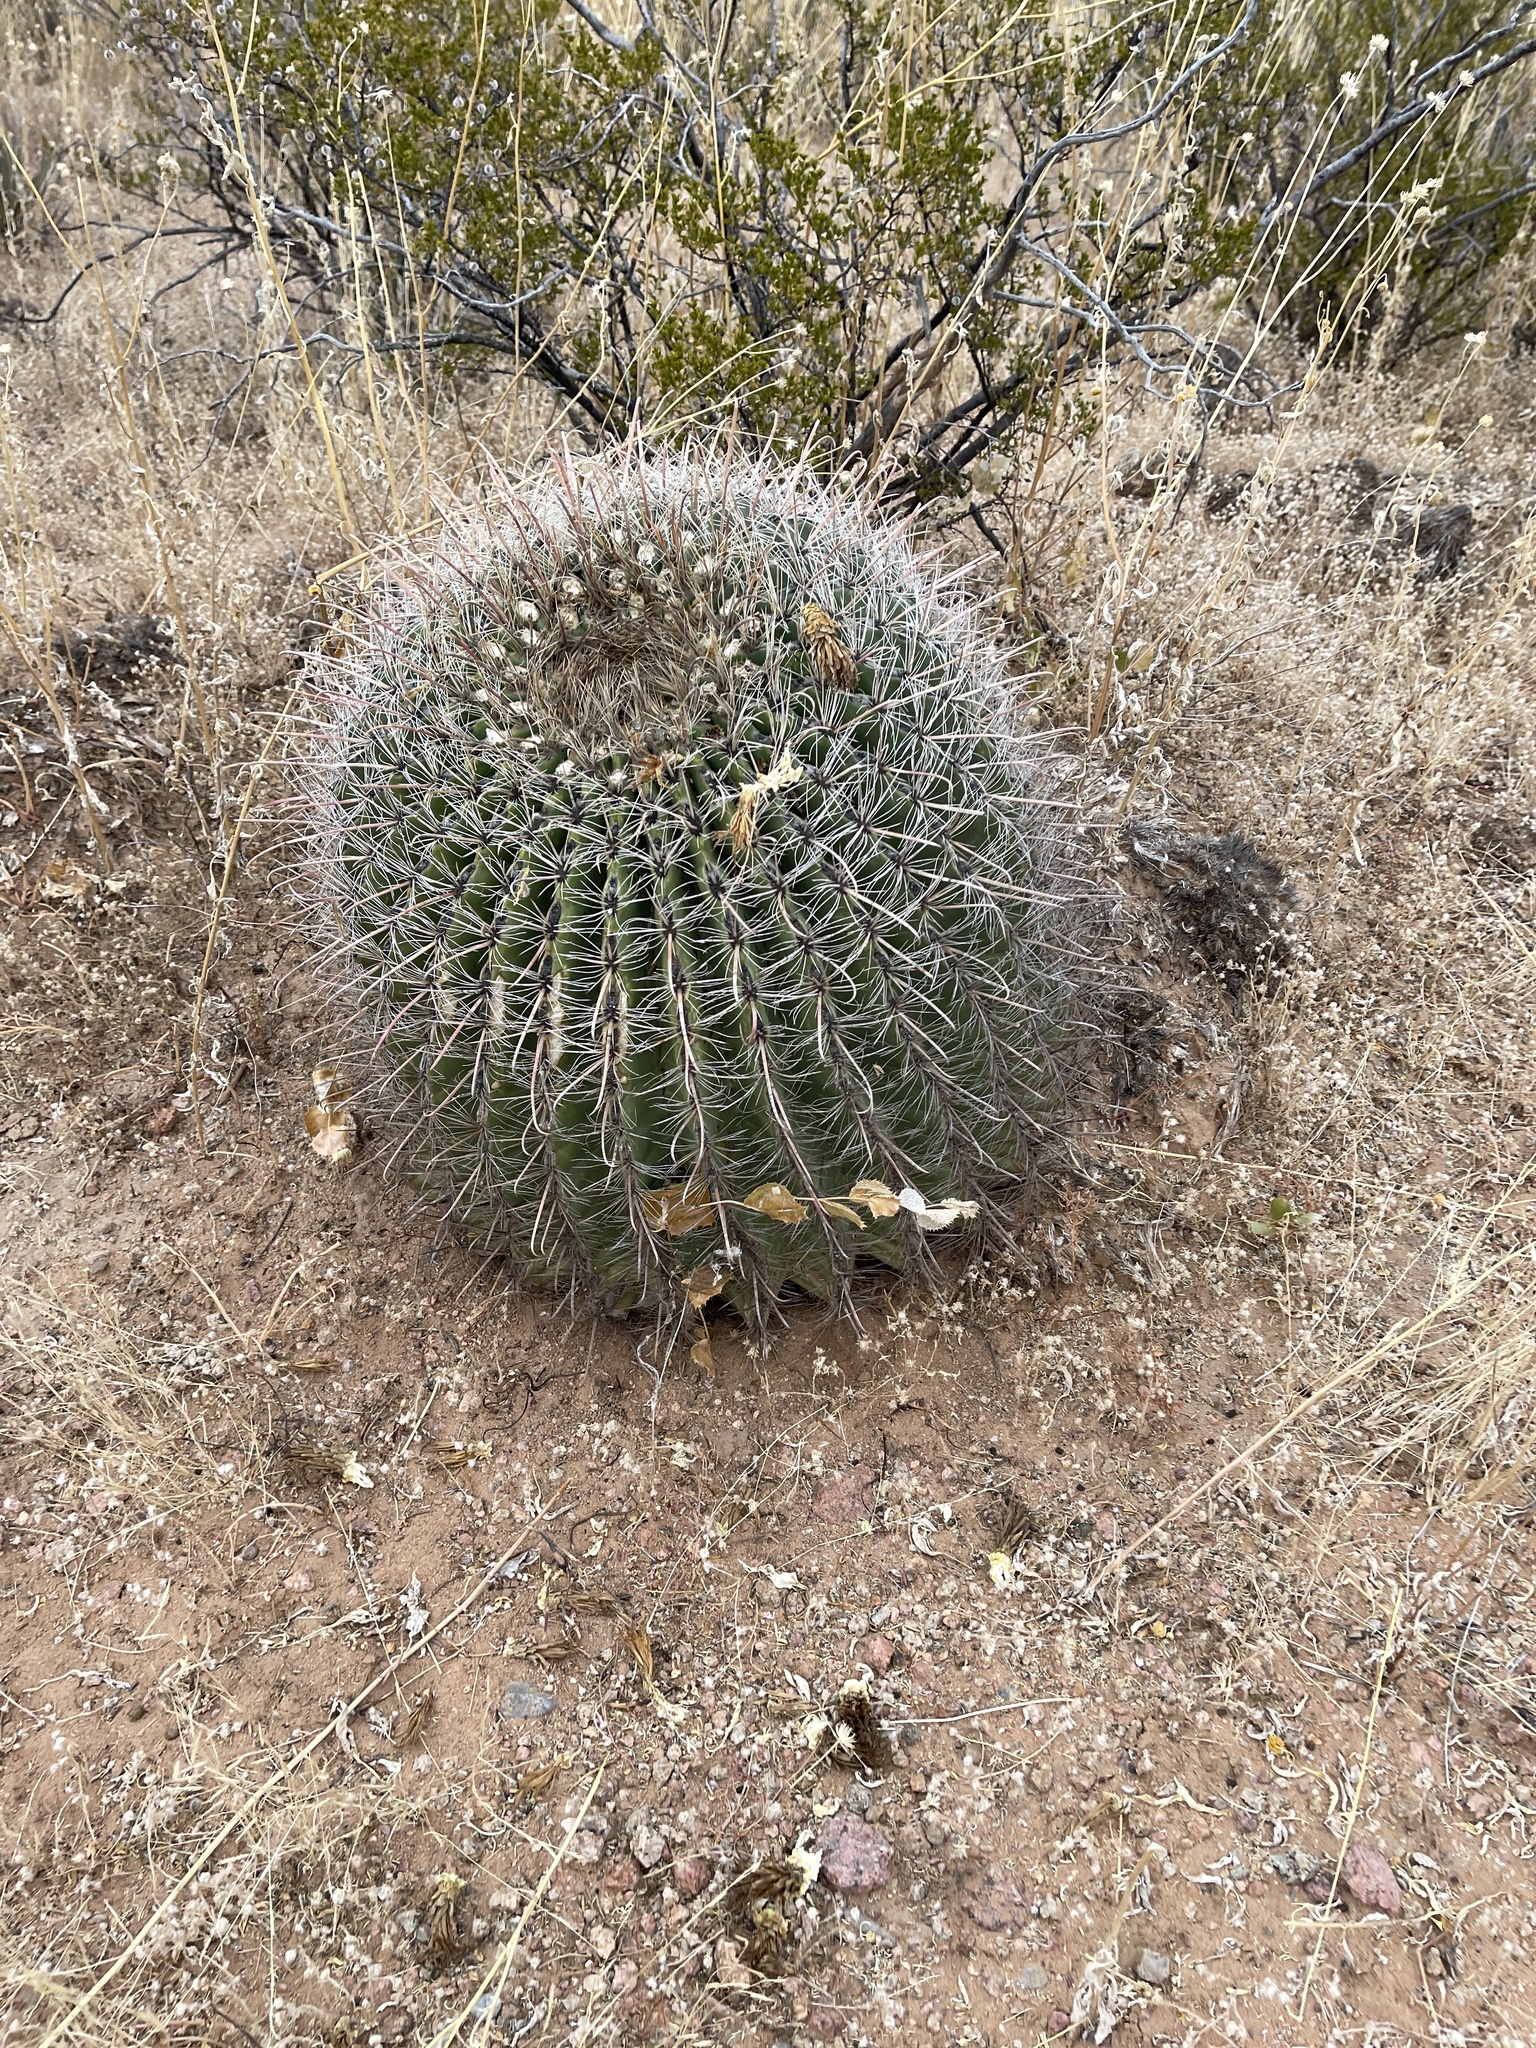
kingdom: Plantae
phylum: Tracheophyta
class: Magnoliopsida
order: Caryophyllales
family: Cactaceae
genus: Ferocactus
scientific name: Ferocactus wislizeni
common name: Candy barrel cactus
